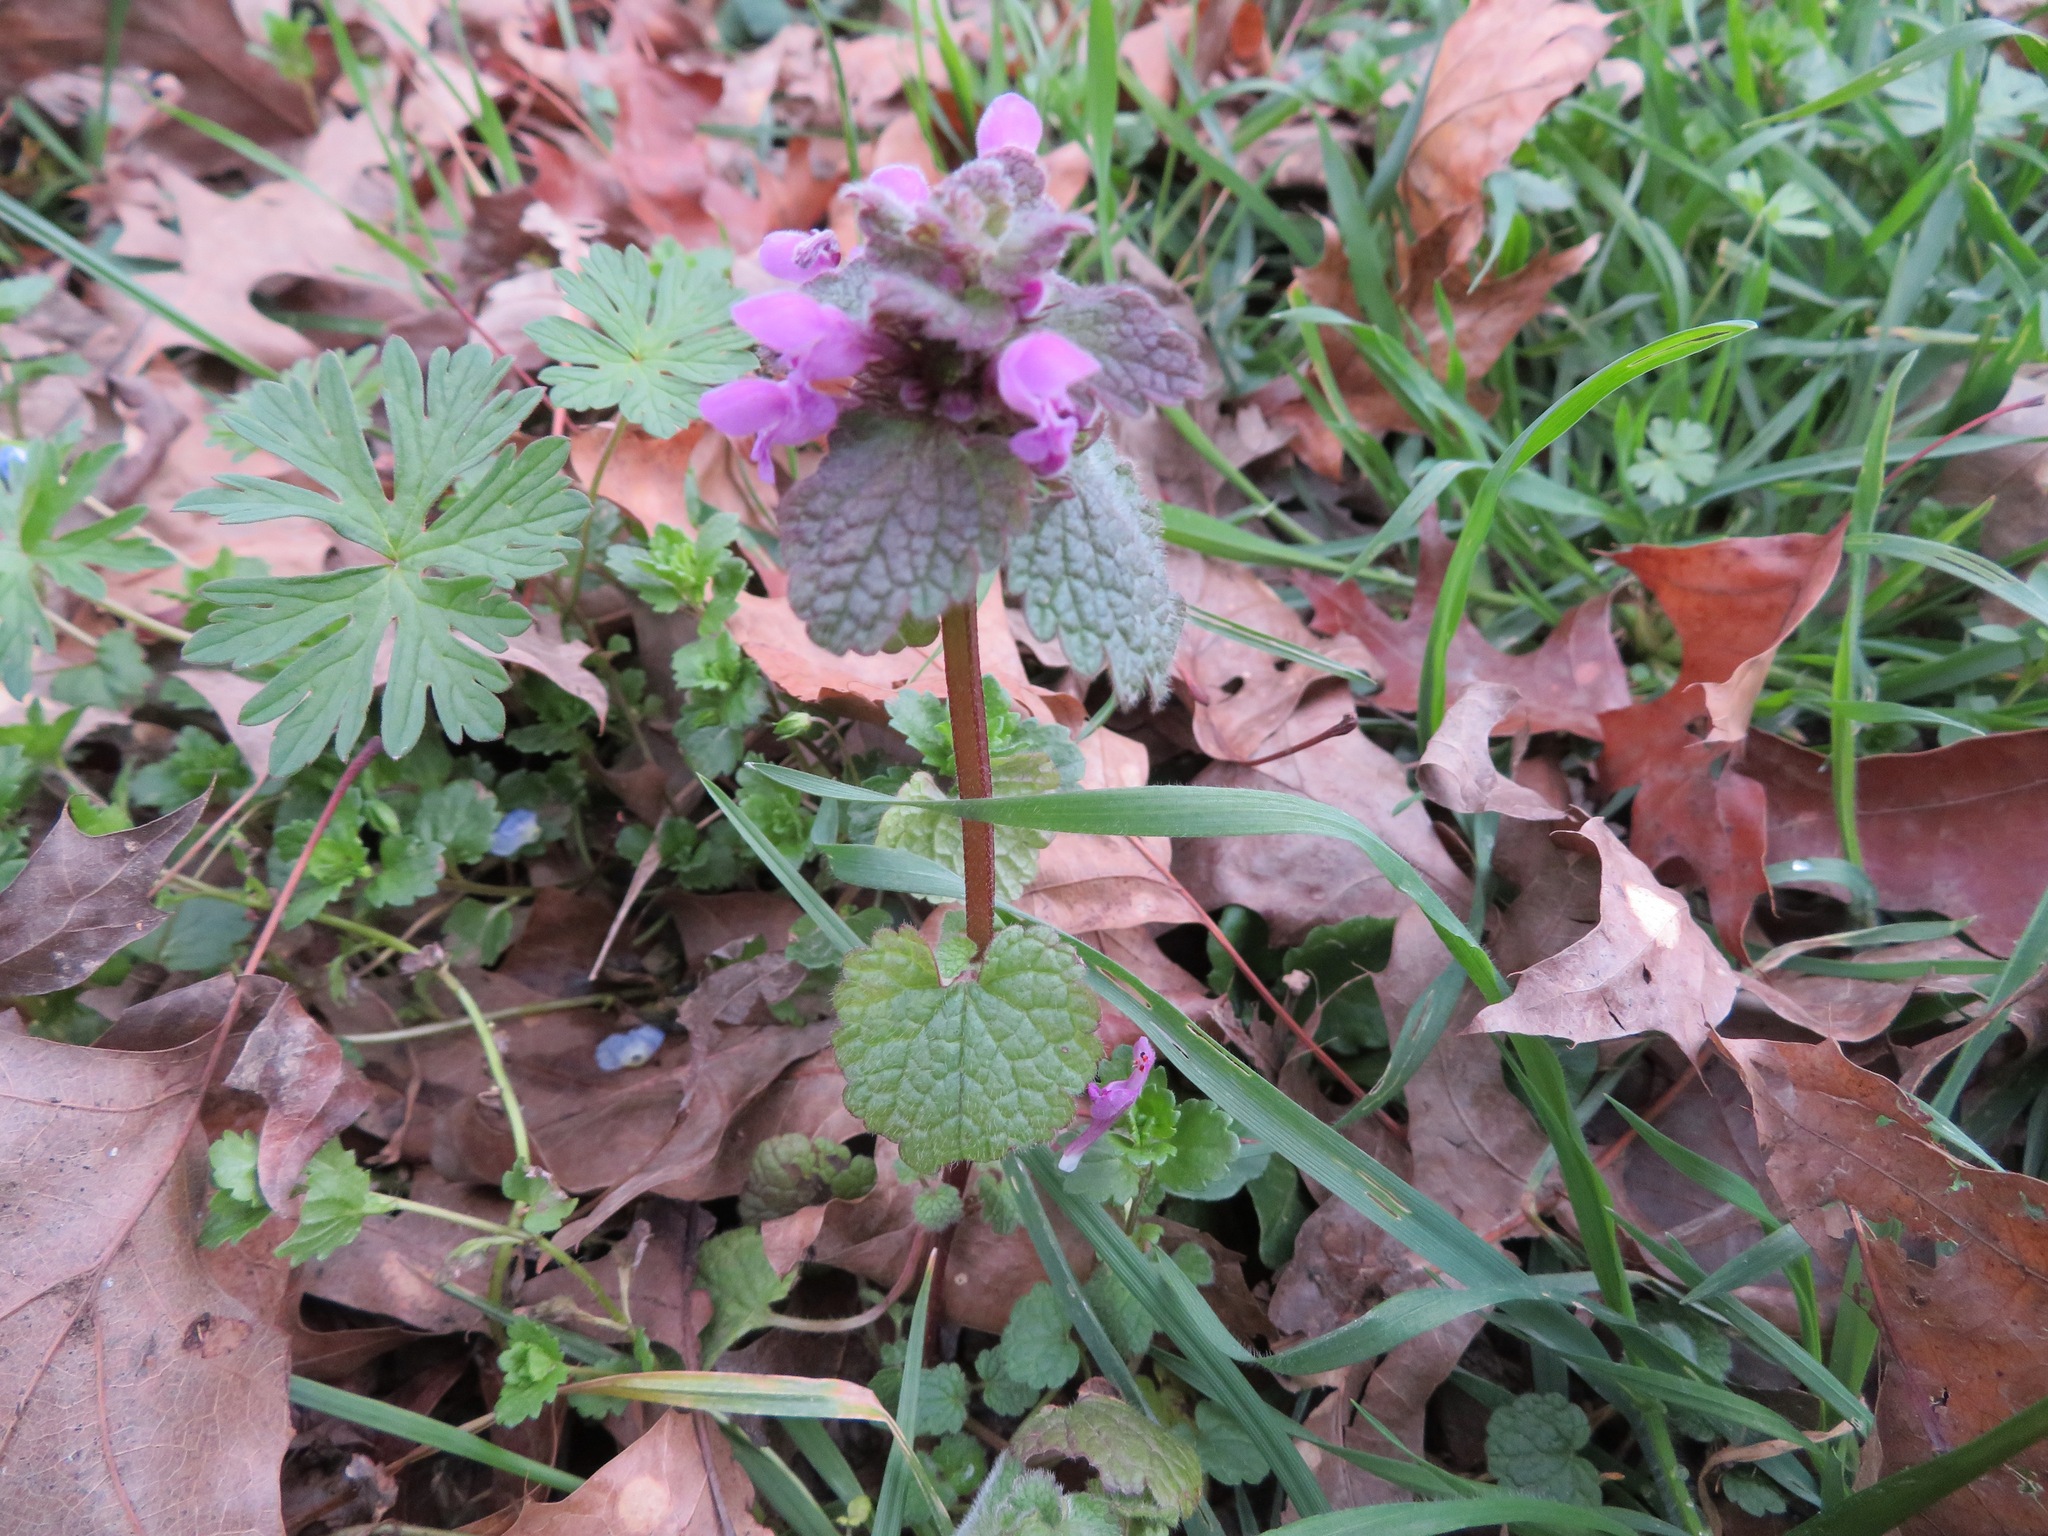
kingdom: Plantae
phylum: Tracheophyta
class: Magnoliopsida
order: Lamiales
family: Lamiaceae
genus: Lamium
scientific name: Lamium purpureum
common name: Red dead-nettle
